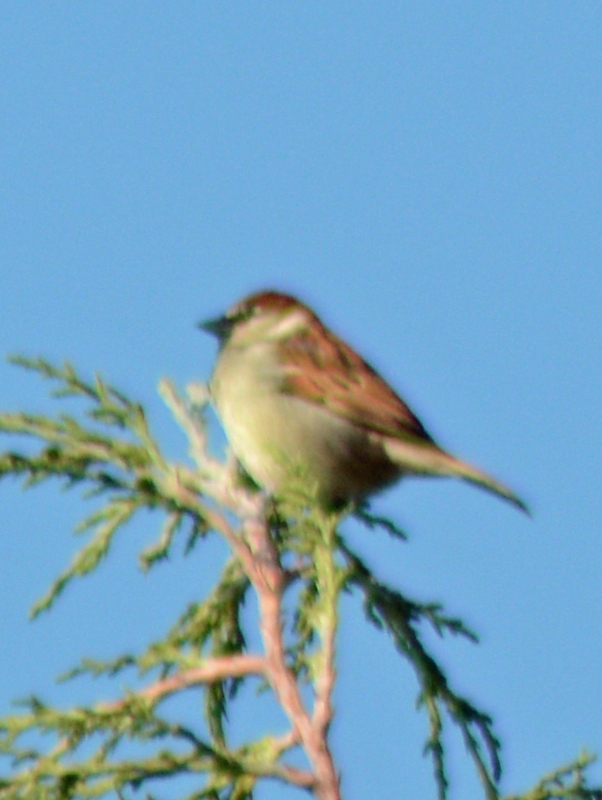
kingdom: Animalia
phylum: Chordata
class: Aves
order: Passeriformes
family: Passeridae
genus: Passer
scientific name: Passer domesticus
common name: House sparrow
